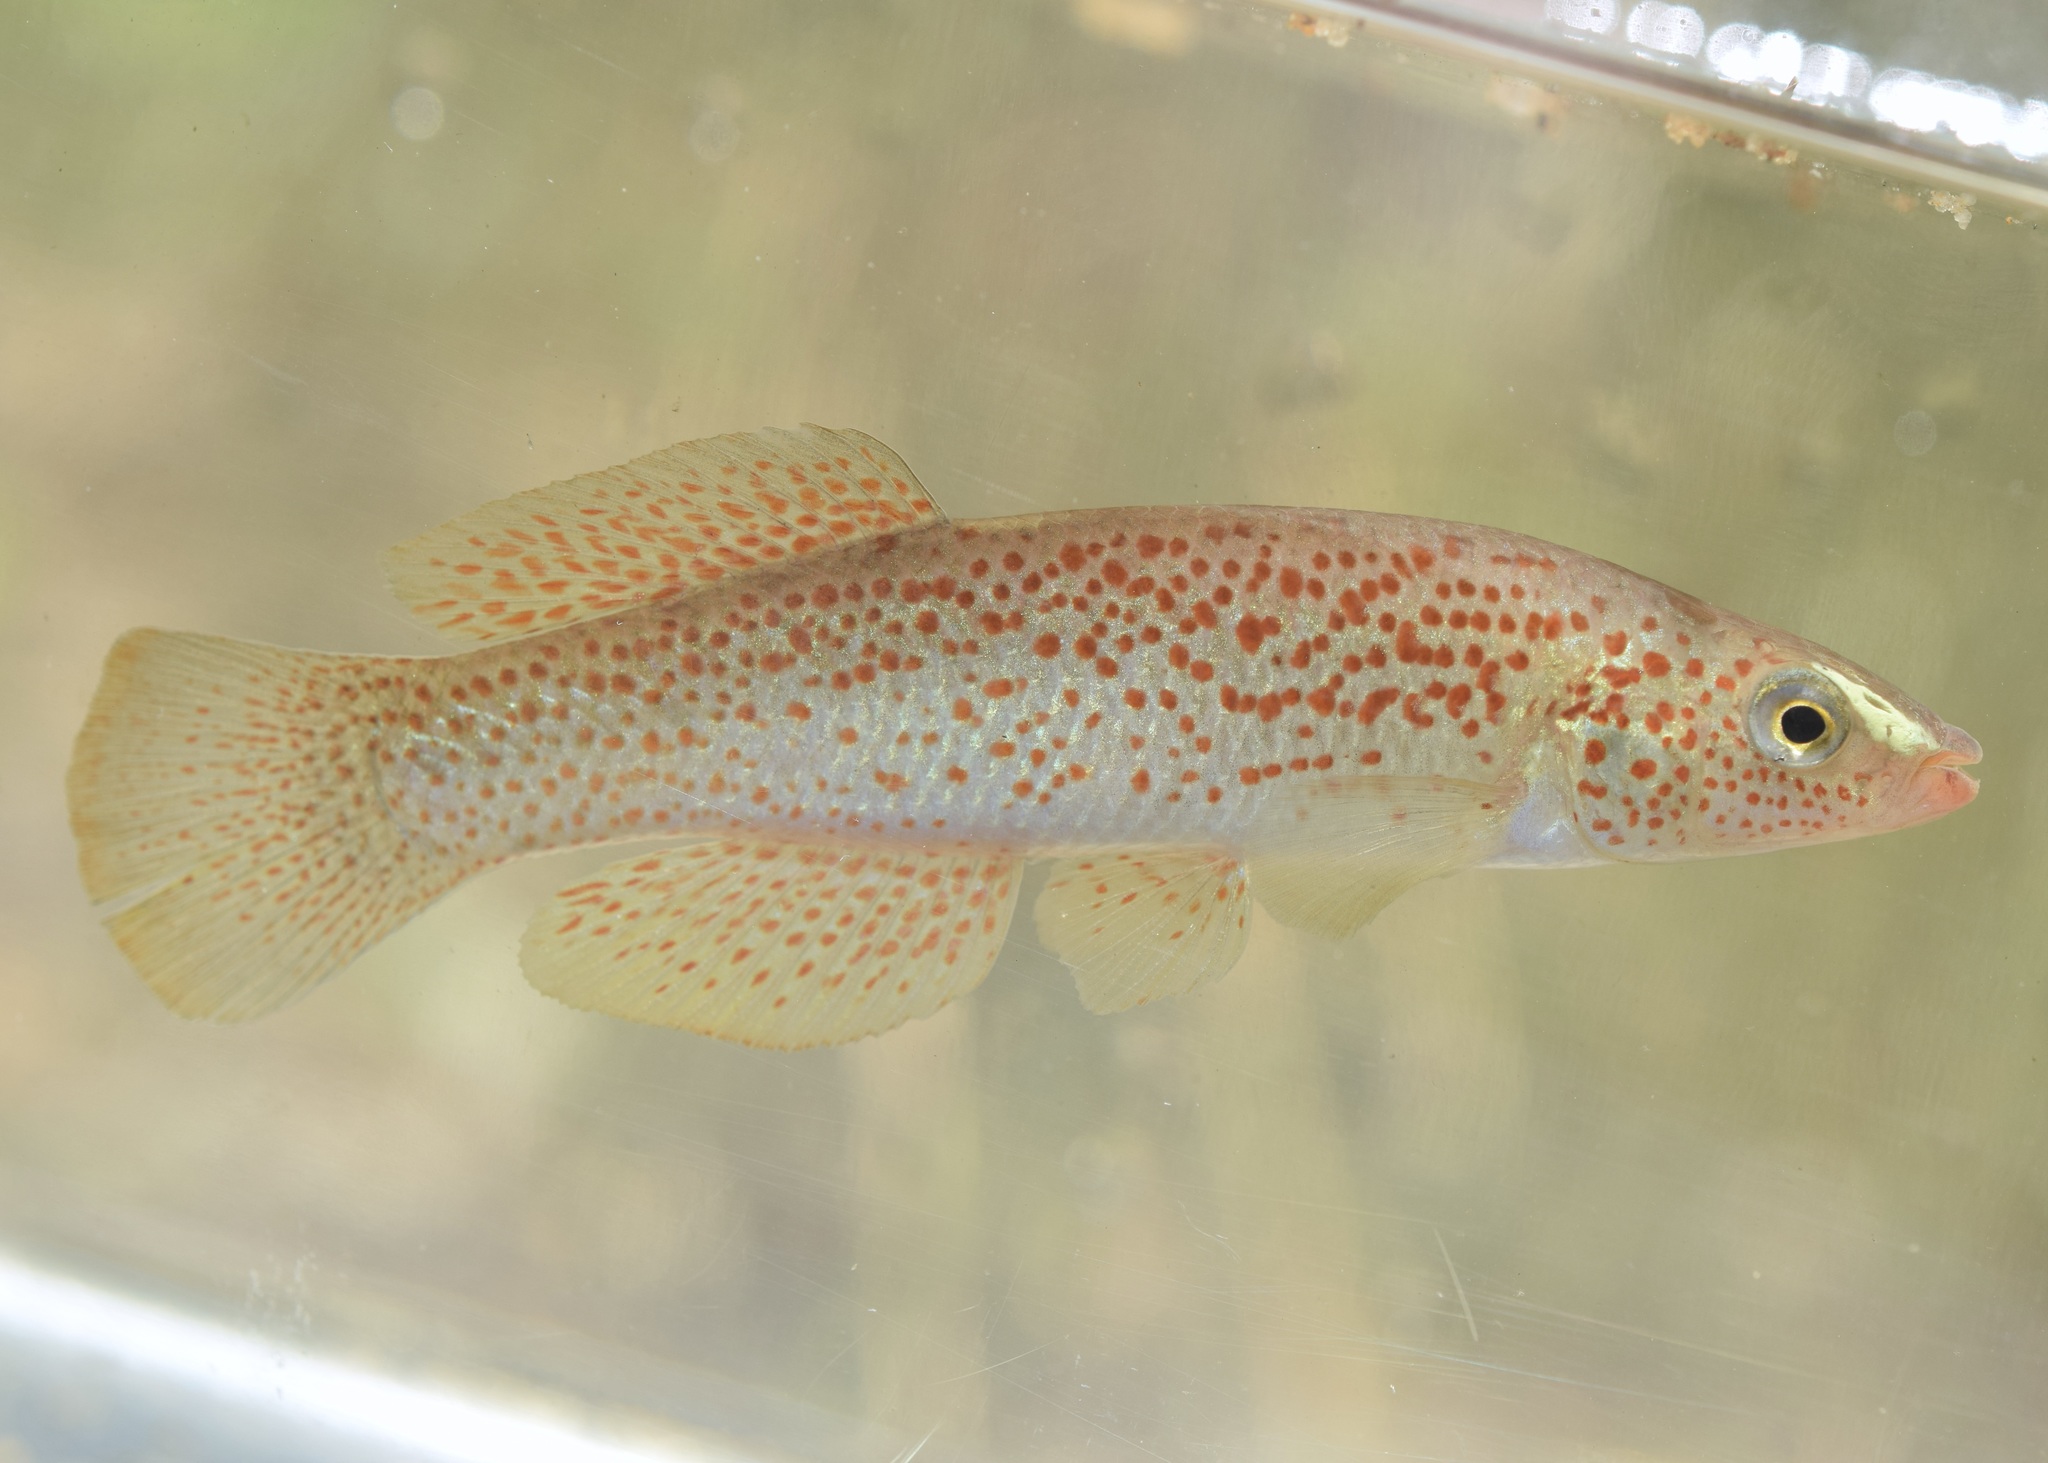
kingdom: Animalia
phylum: Chordata
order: Cyprinodontiformes
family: Fundulidae
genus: Fundulus
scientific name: Fundulus stellifer
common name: Southern studfish
